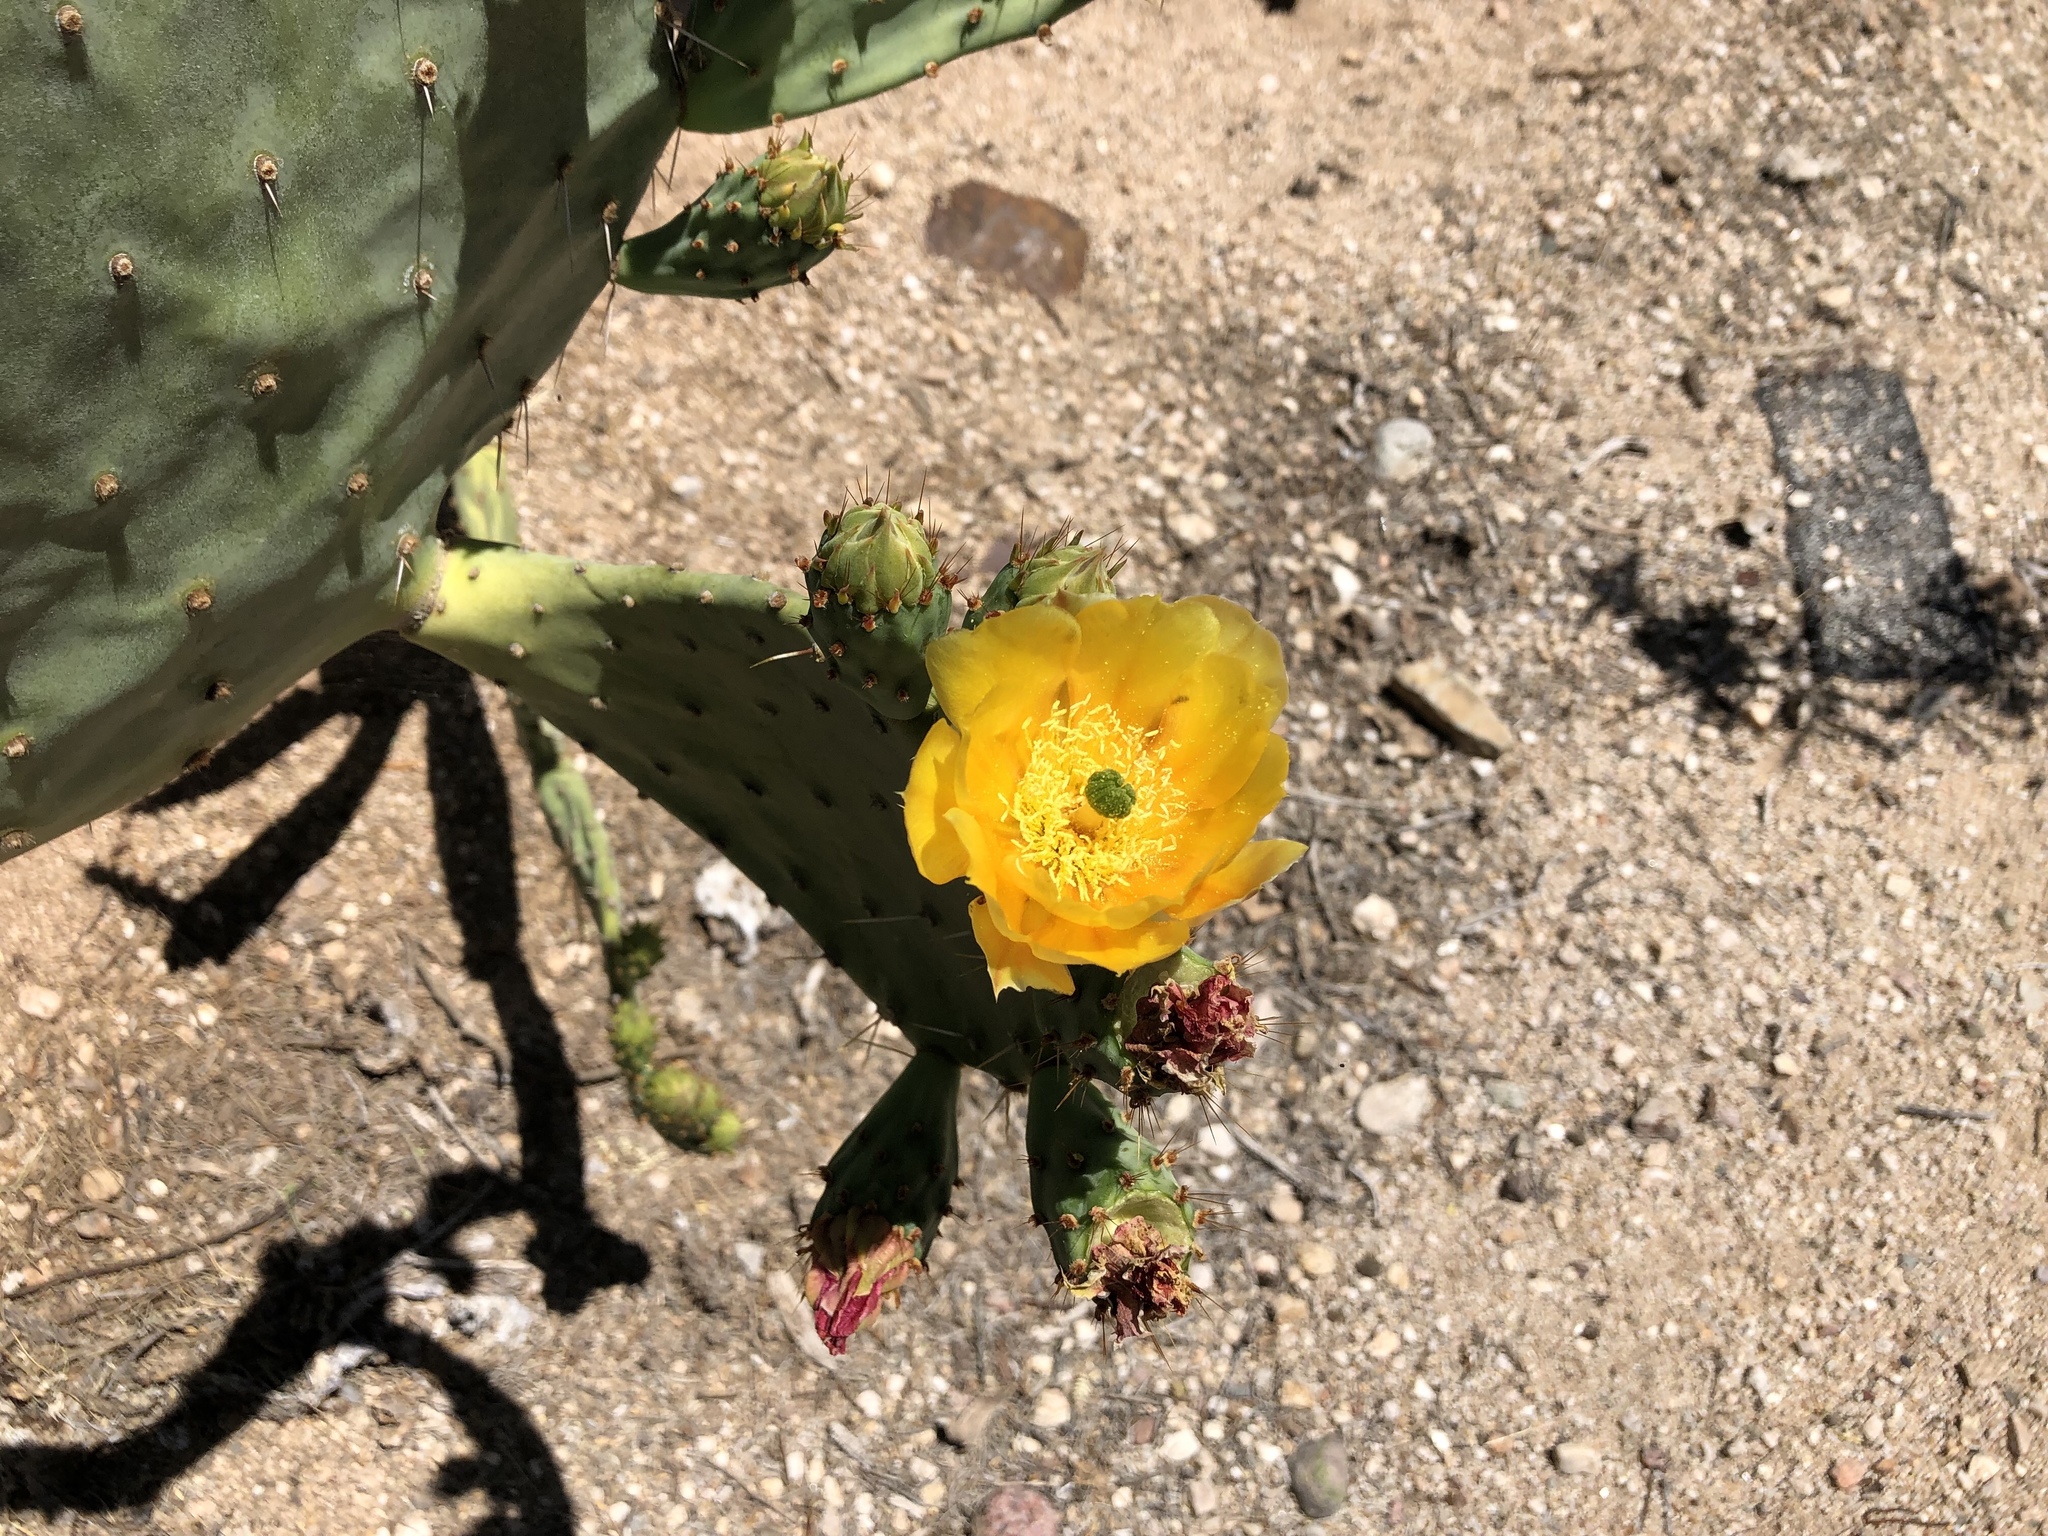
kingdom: Plantae
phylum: Tracheophyta
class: Magnoliopsida
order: Caryophyllales
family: Cactaceae
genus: Opuntia
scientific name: Opuntia engelmannii
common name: Cactus-apple
